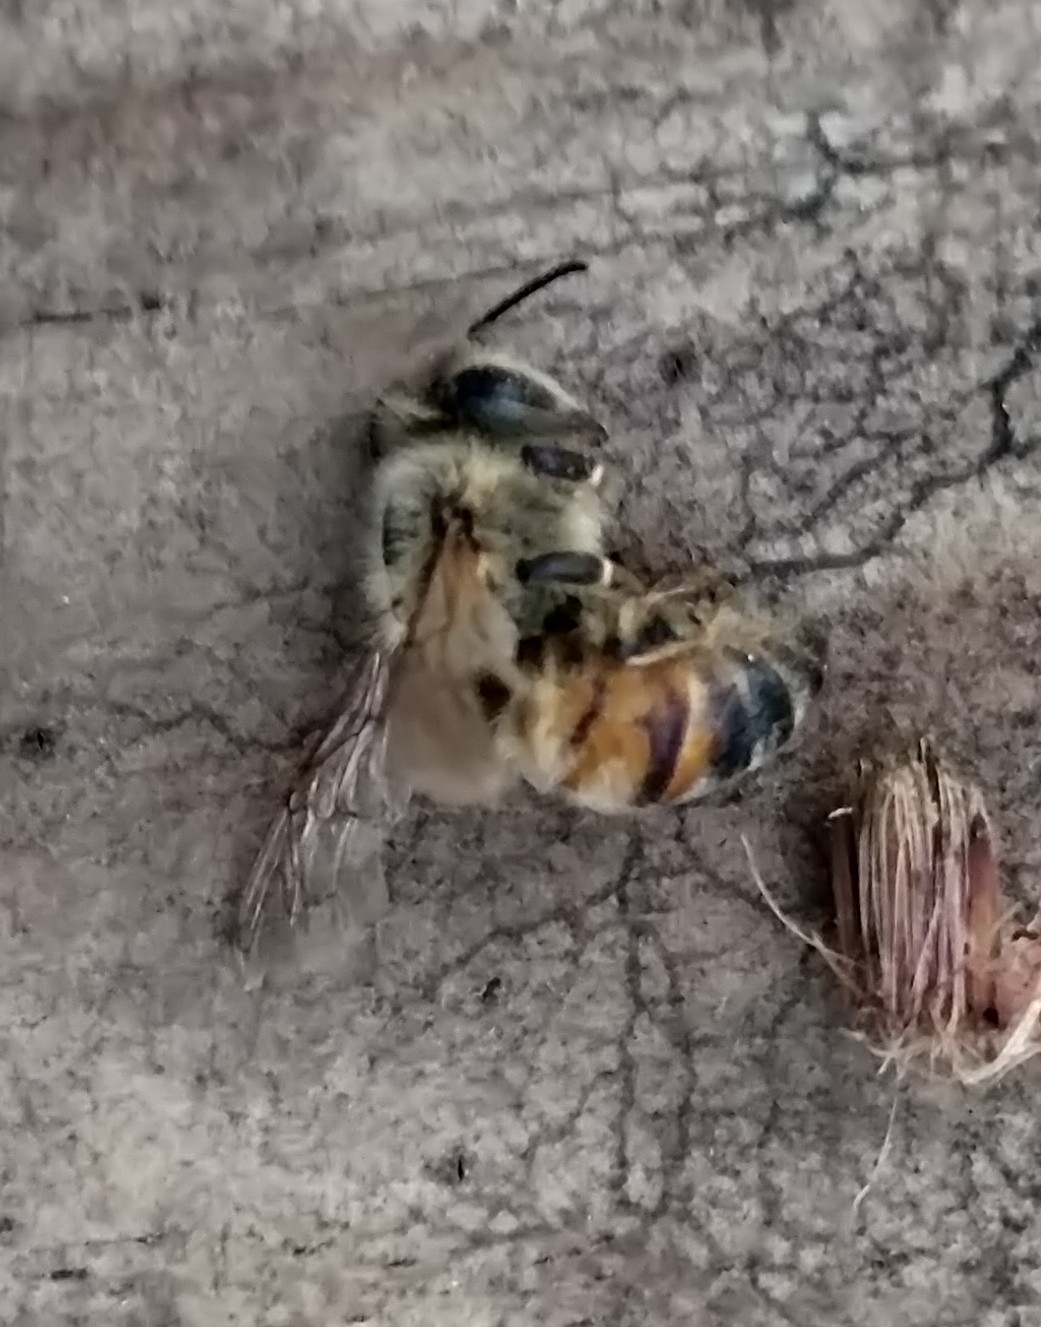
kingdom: Animalia
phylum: Arthropoda
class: Insecta
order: Hymenoptera
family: Apidae
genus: Apis
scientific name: Apis mellifera
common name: Honey bee
